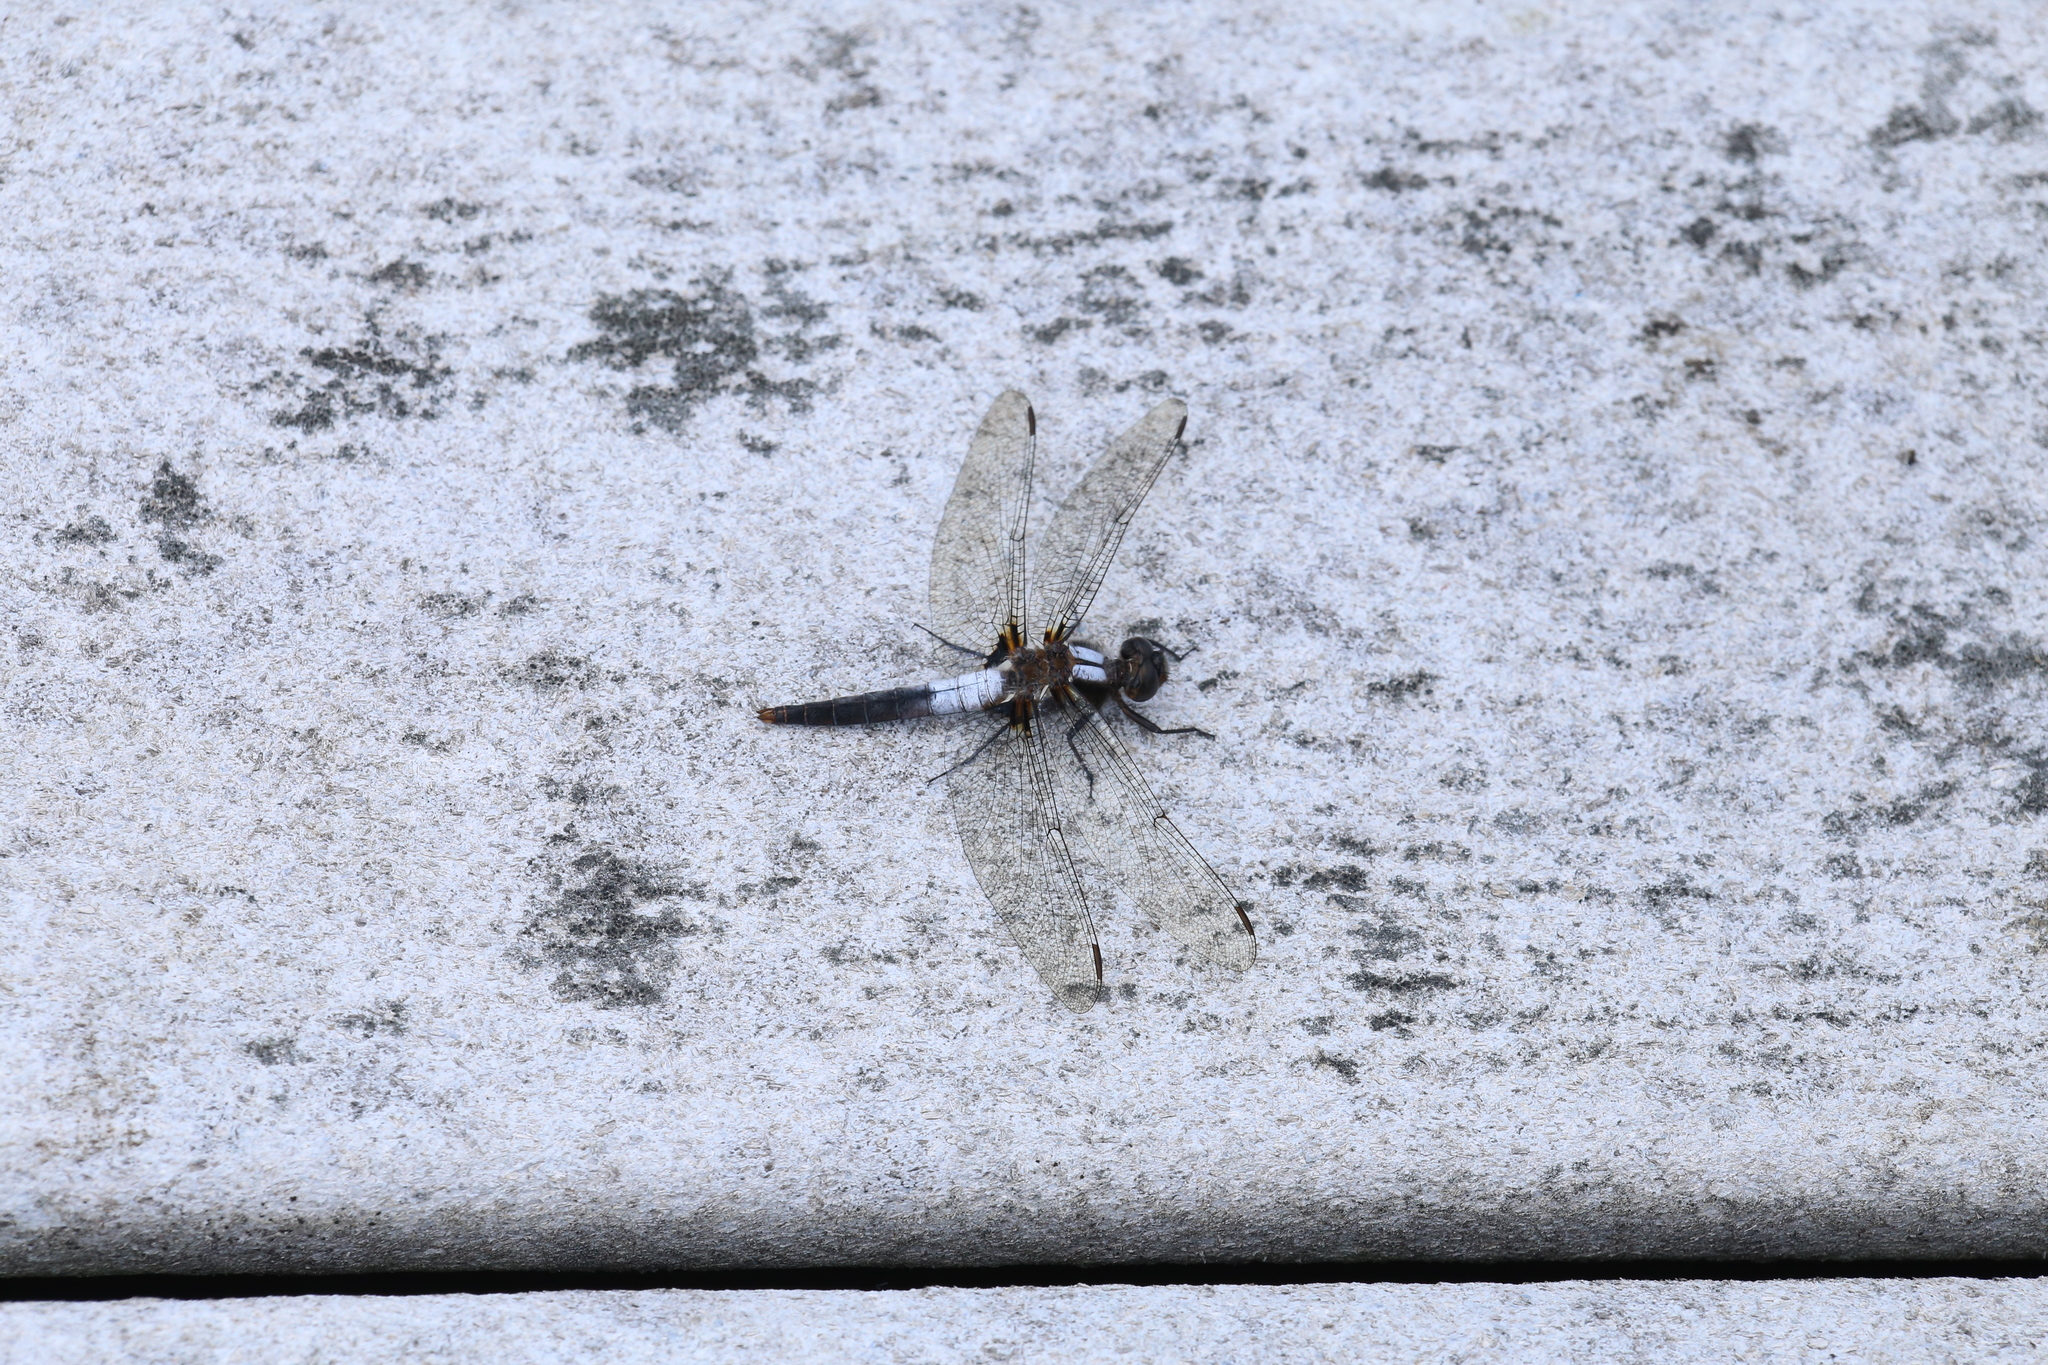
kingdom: Animalia
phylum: Arthropoda
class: Insecta
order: Odonata
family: Libellulidae
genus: Ladona
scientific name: Ladona julia
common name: Chalk-fronted corporal
